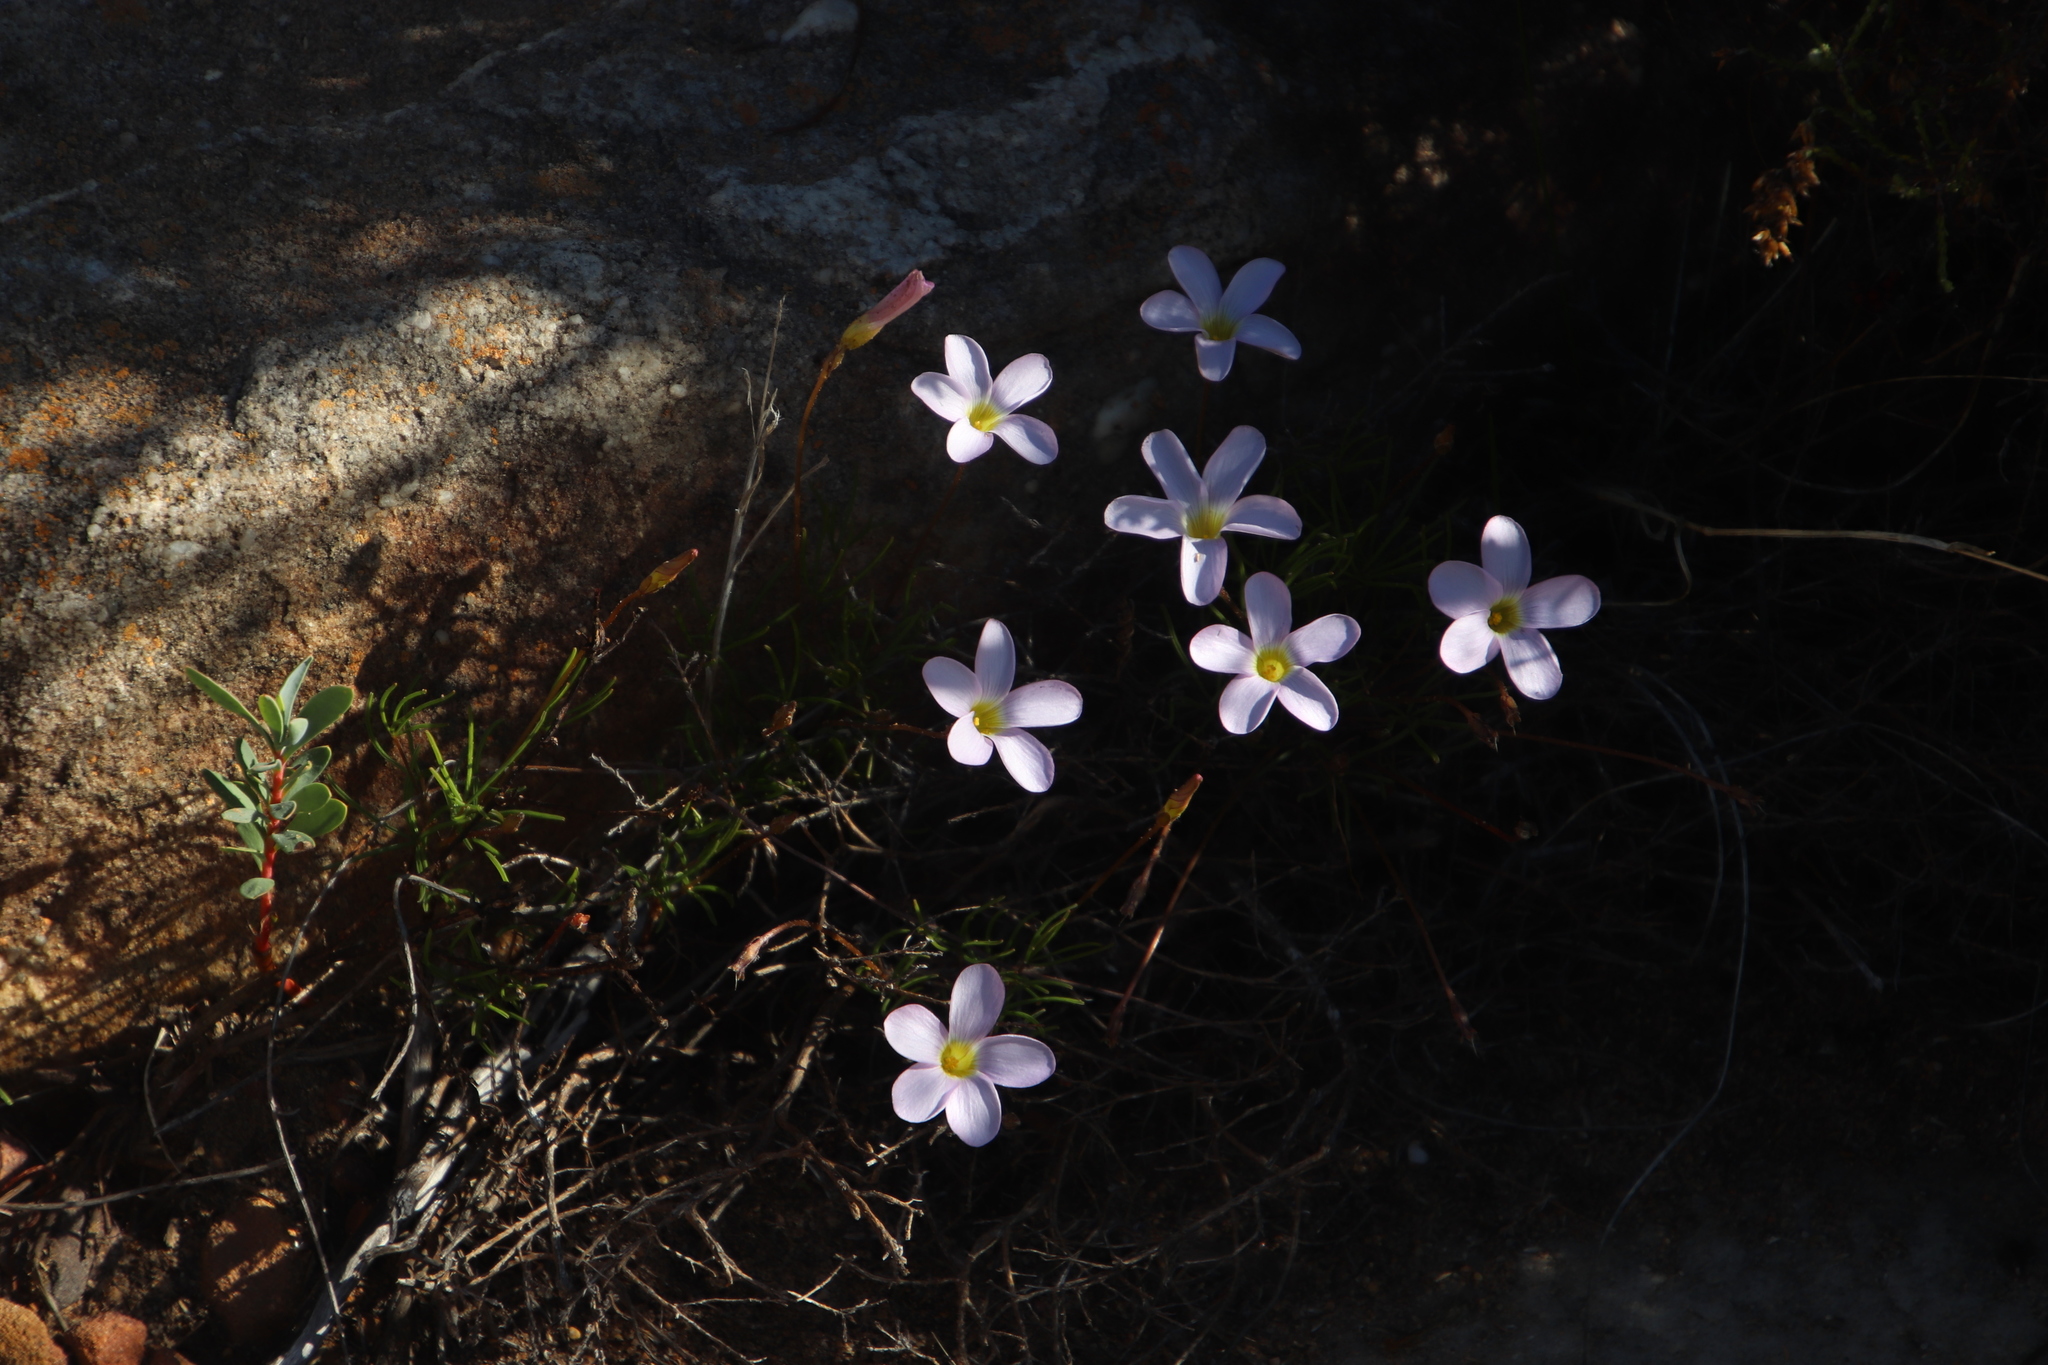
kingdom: Plantae
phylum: Tracheophyta
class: Magnoliopsida
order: Oxalidales
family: Oxalidaceae
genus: Oxalis
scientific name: Oxalis polyphylla
